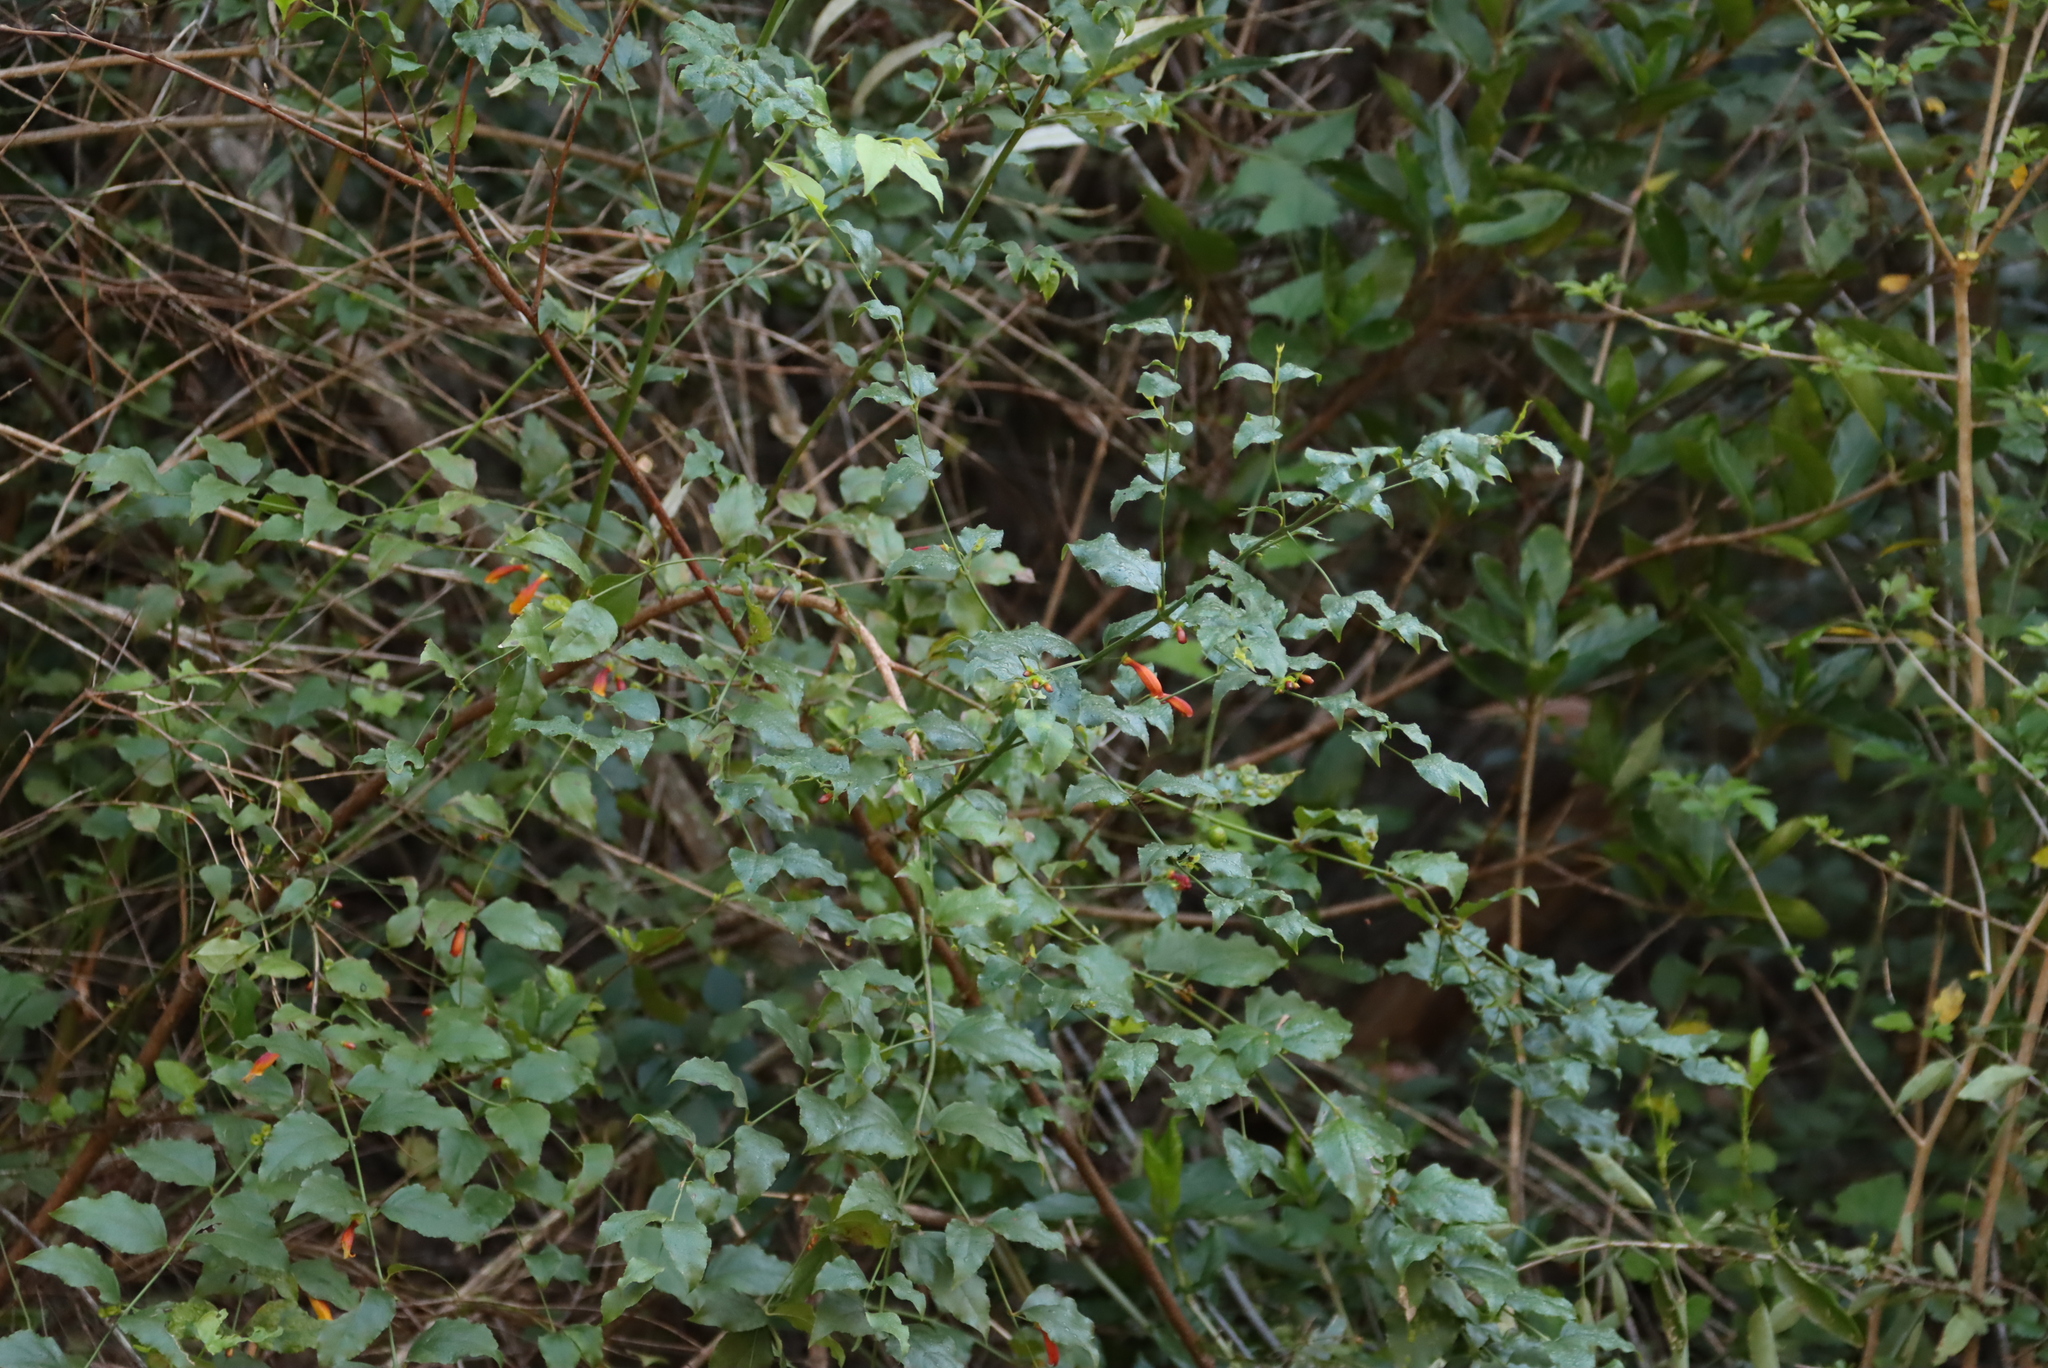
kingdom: Plantae
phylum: Tracheophyta
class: Magnoliopsida
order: Lamiales
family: Stilbaceae
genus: Halleria
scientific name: Halleria lucida
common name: Tree fuschia
